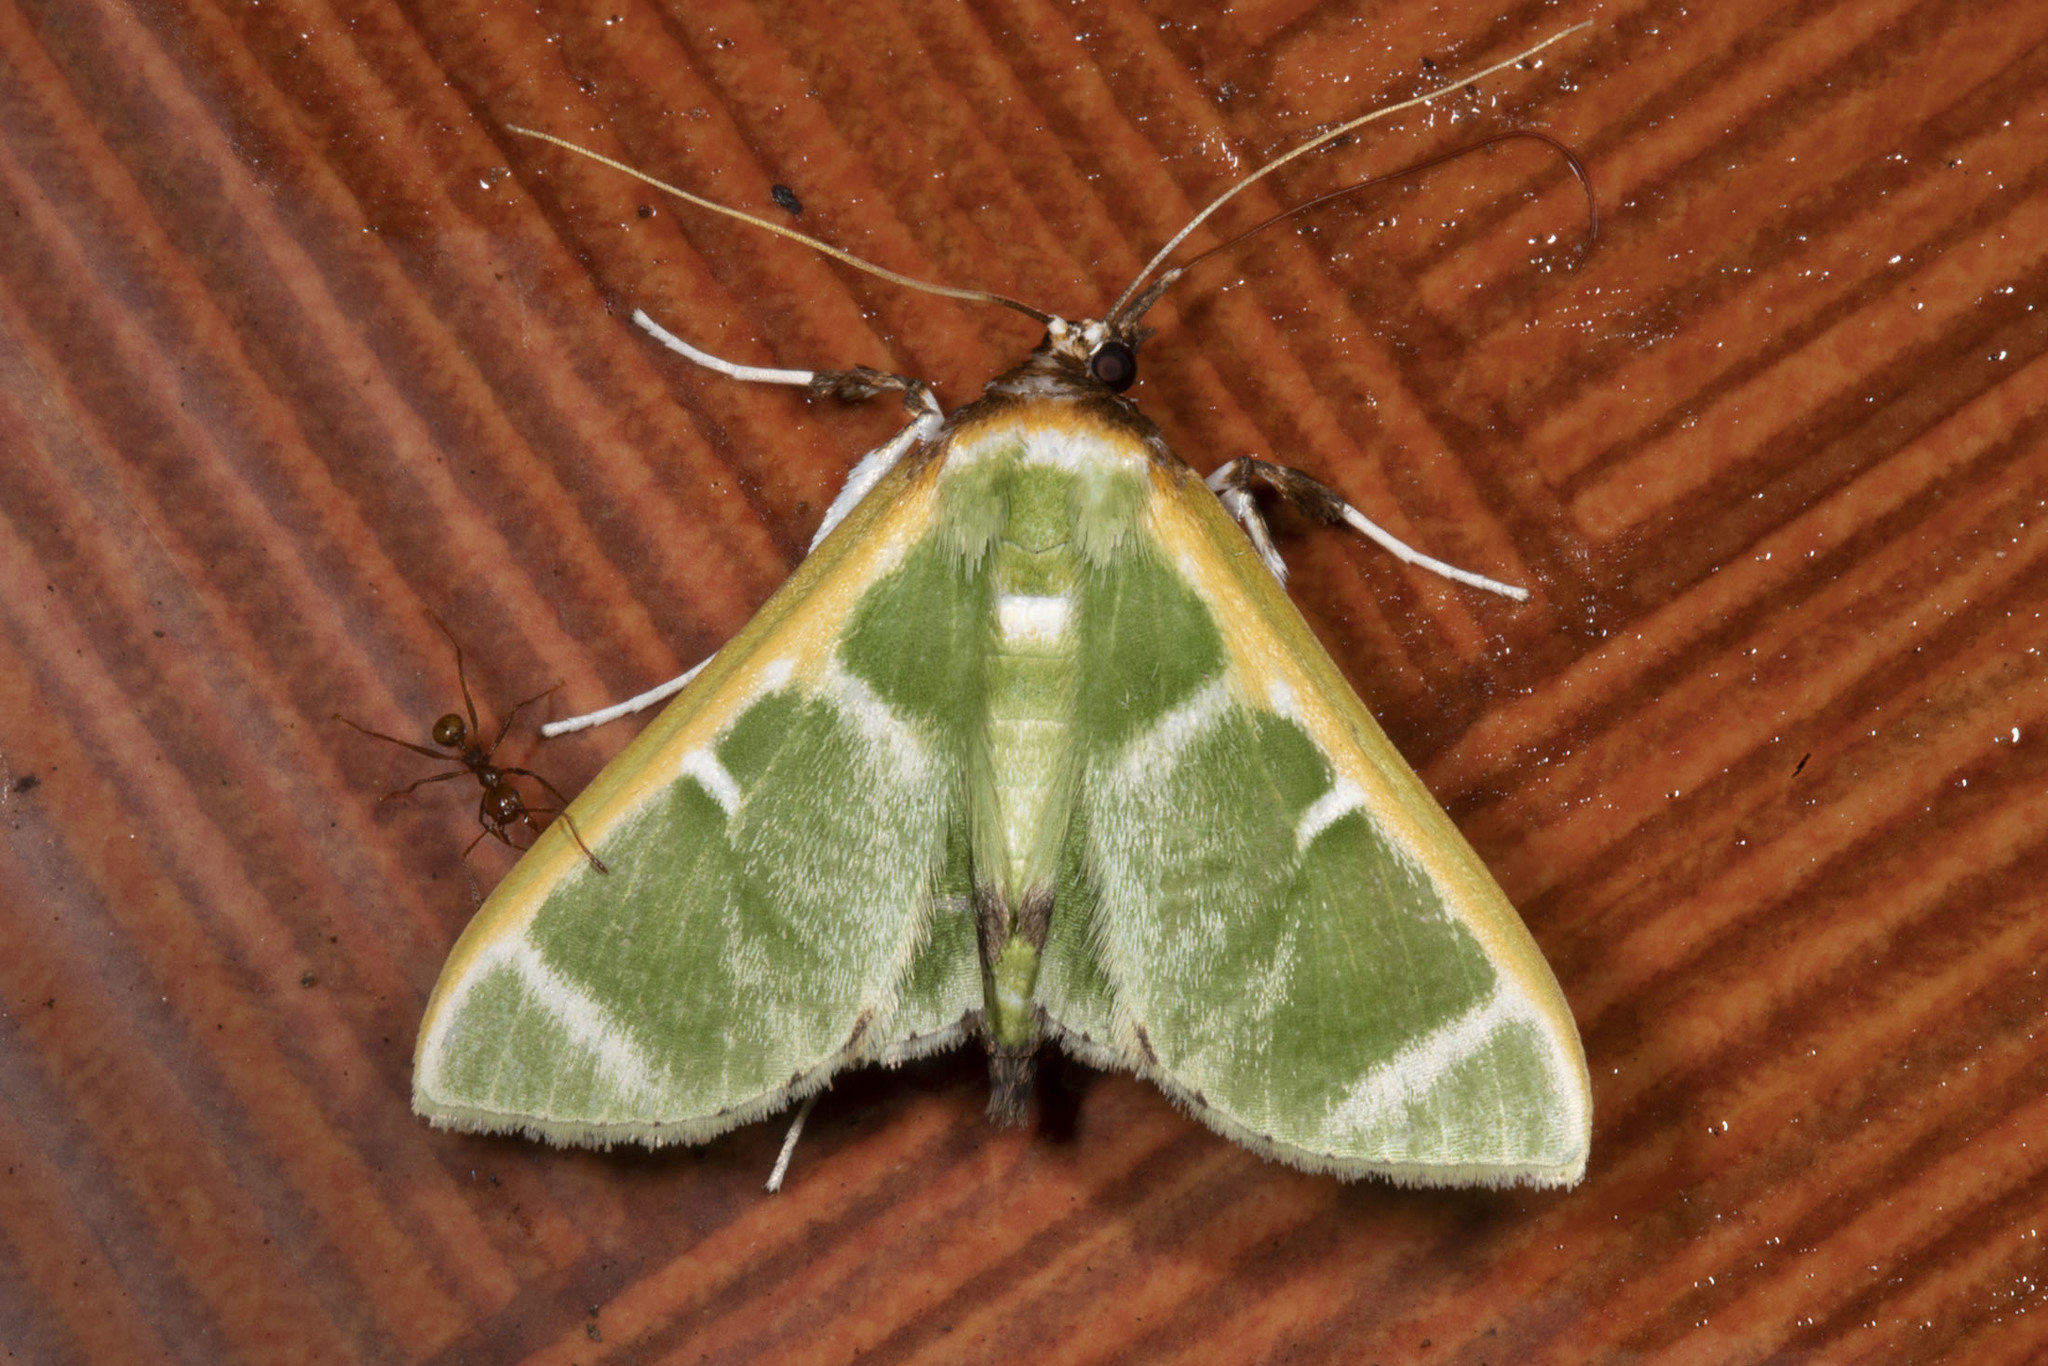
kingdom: Animalia
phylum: Arthropoda
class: Insecta
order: Lepidoptera
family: Crambidae
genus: Glyphodes
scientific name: Glyphodes
